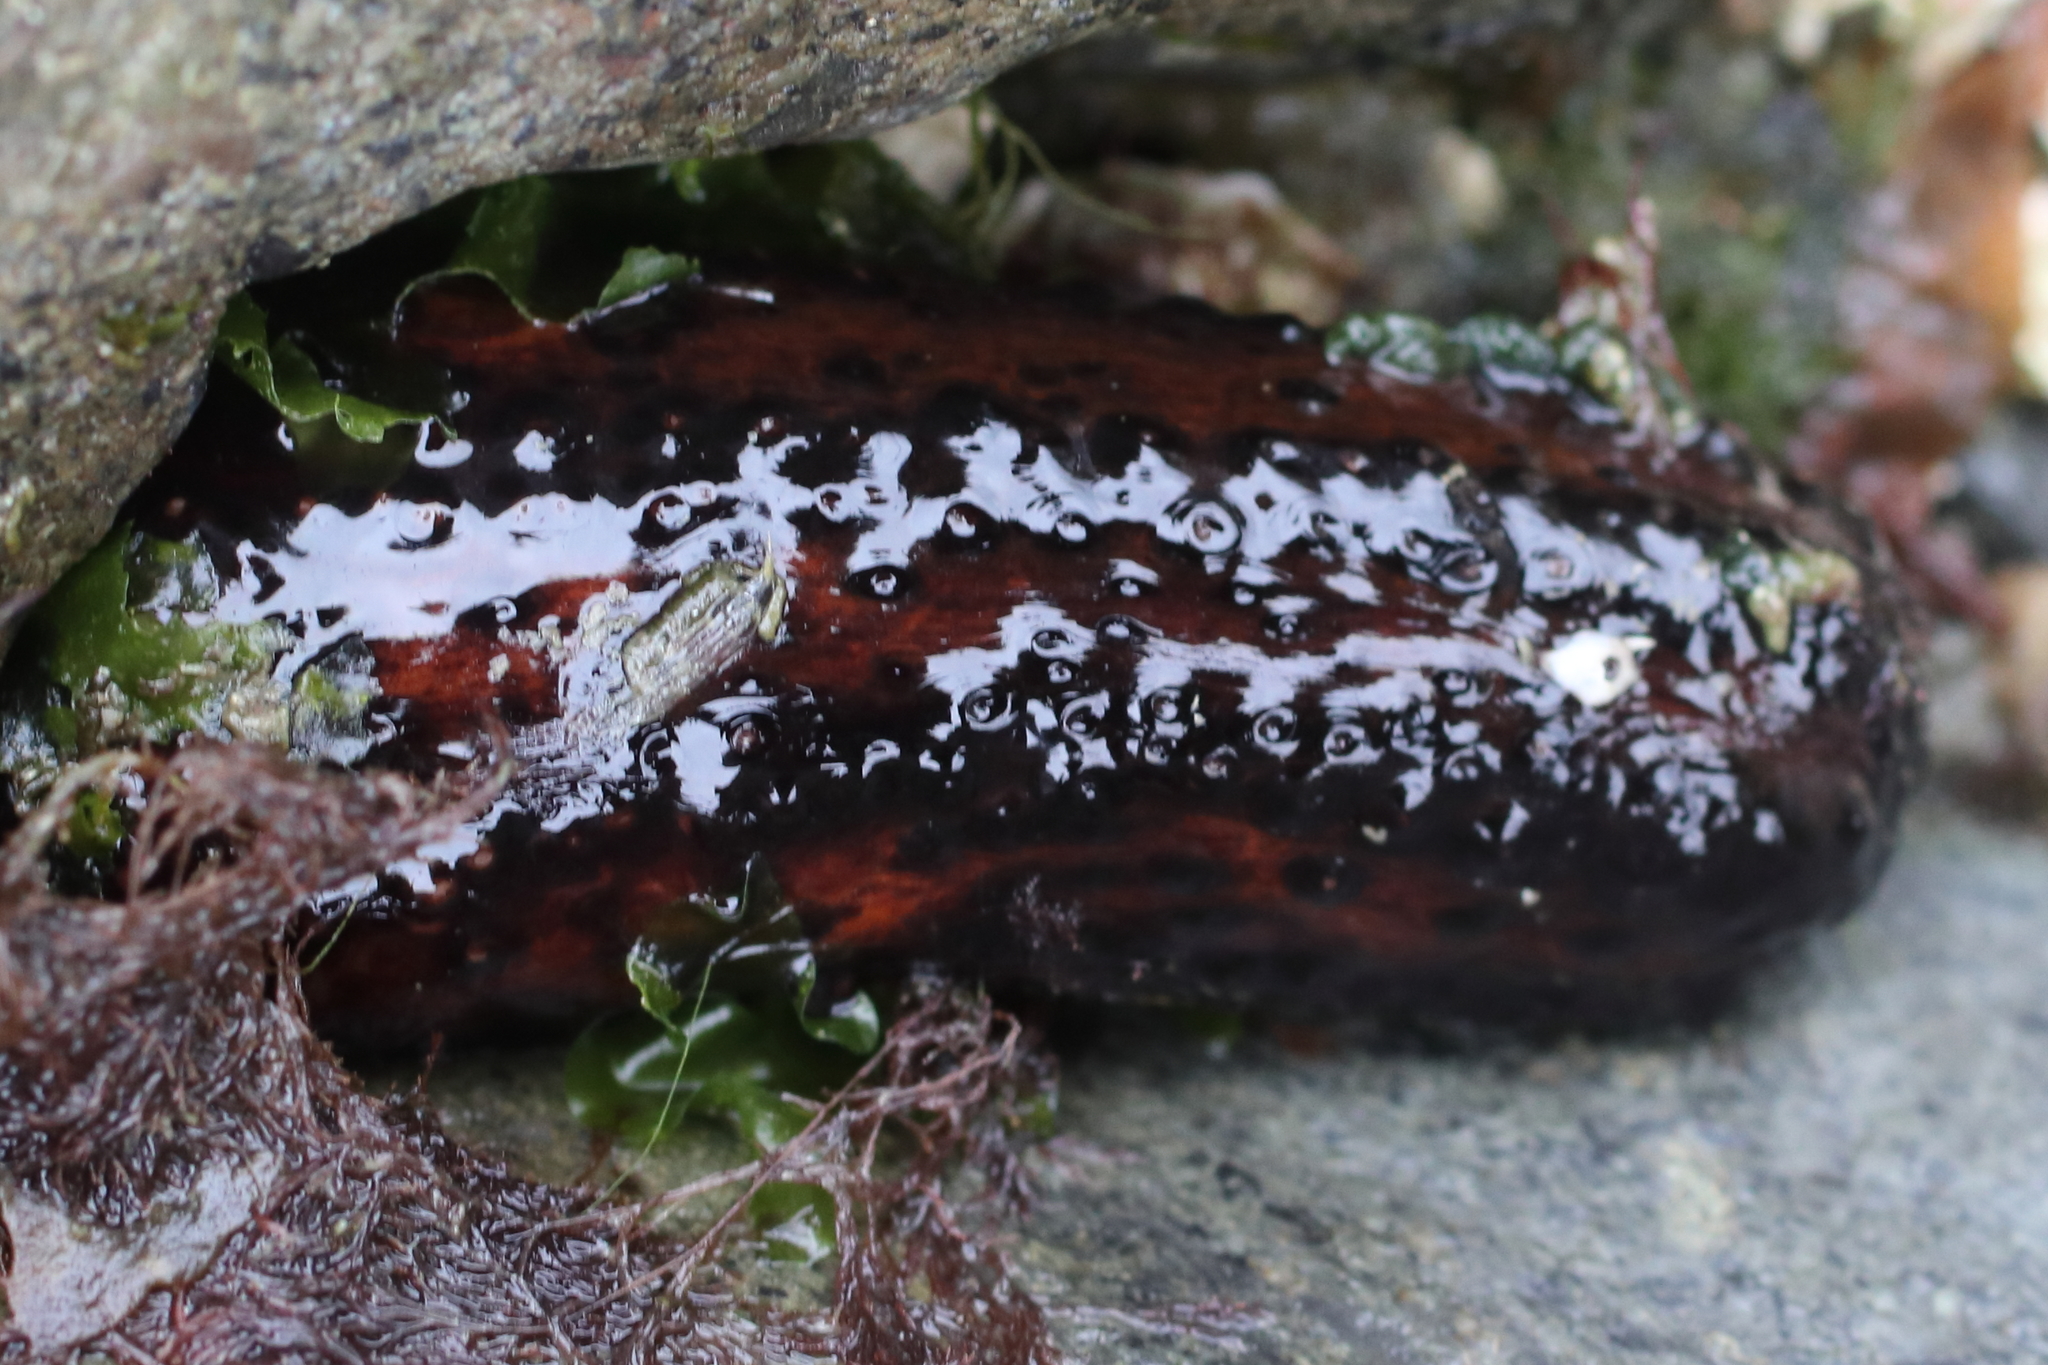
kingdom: Animalia
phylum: Echinodermata
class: Holothuroidea
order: Dendrochirotida
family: Cucumariidae
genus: Cucumaria
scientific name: Cucumaria miniata
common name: Orange sea cucumber
